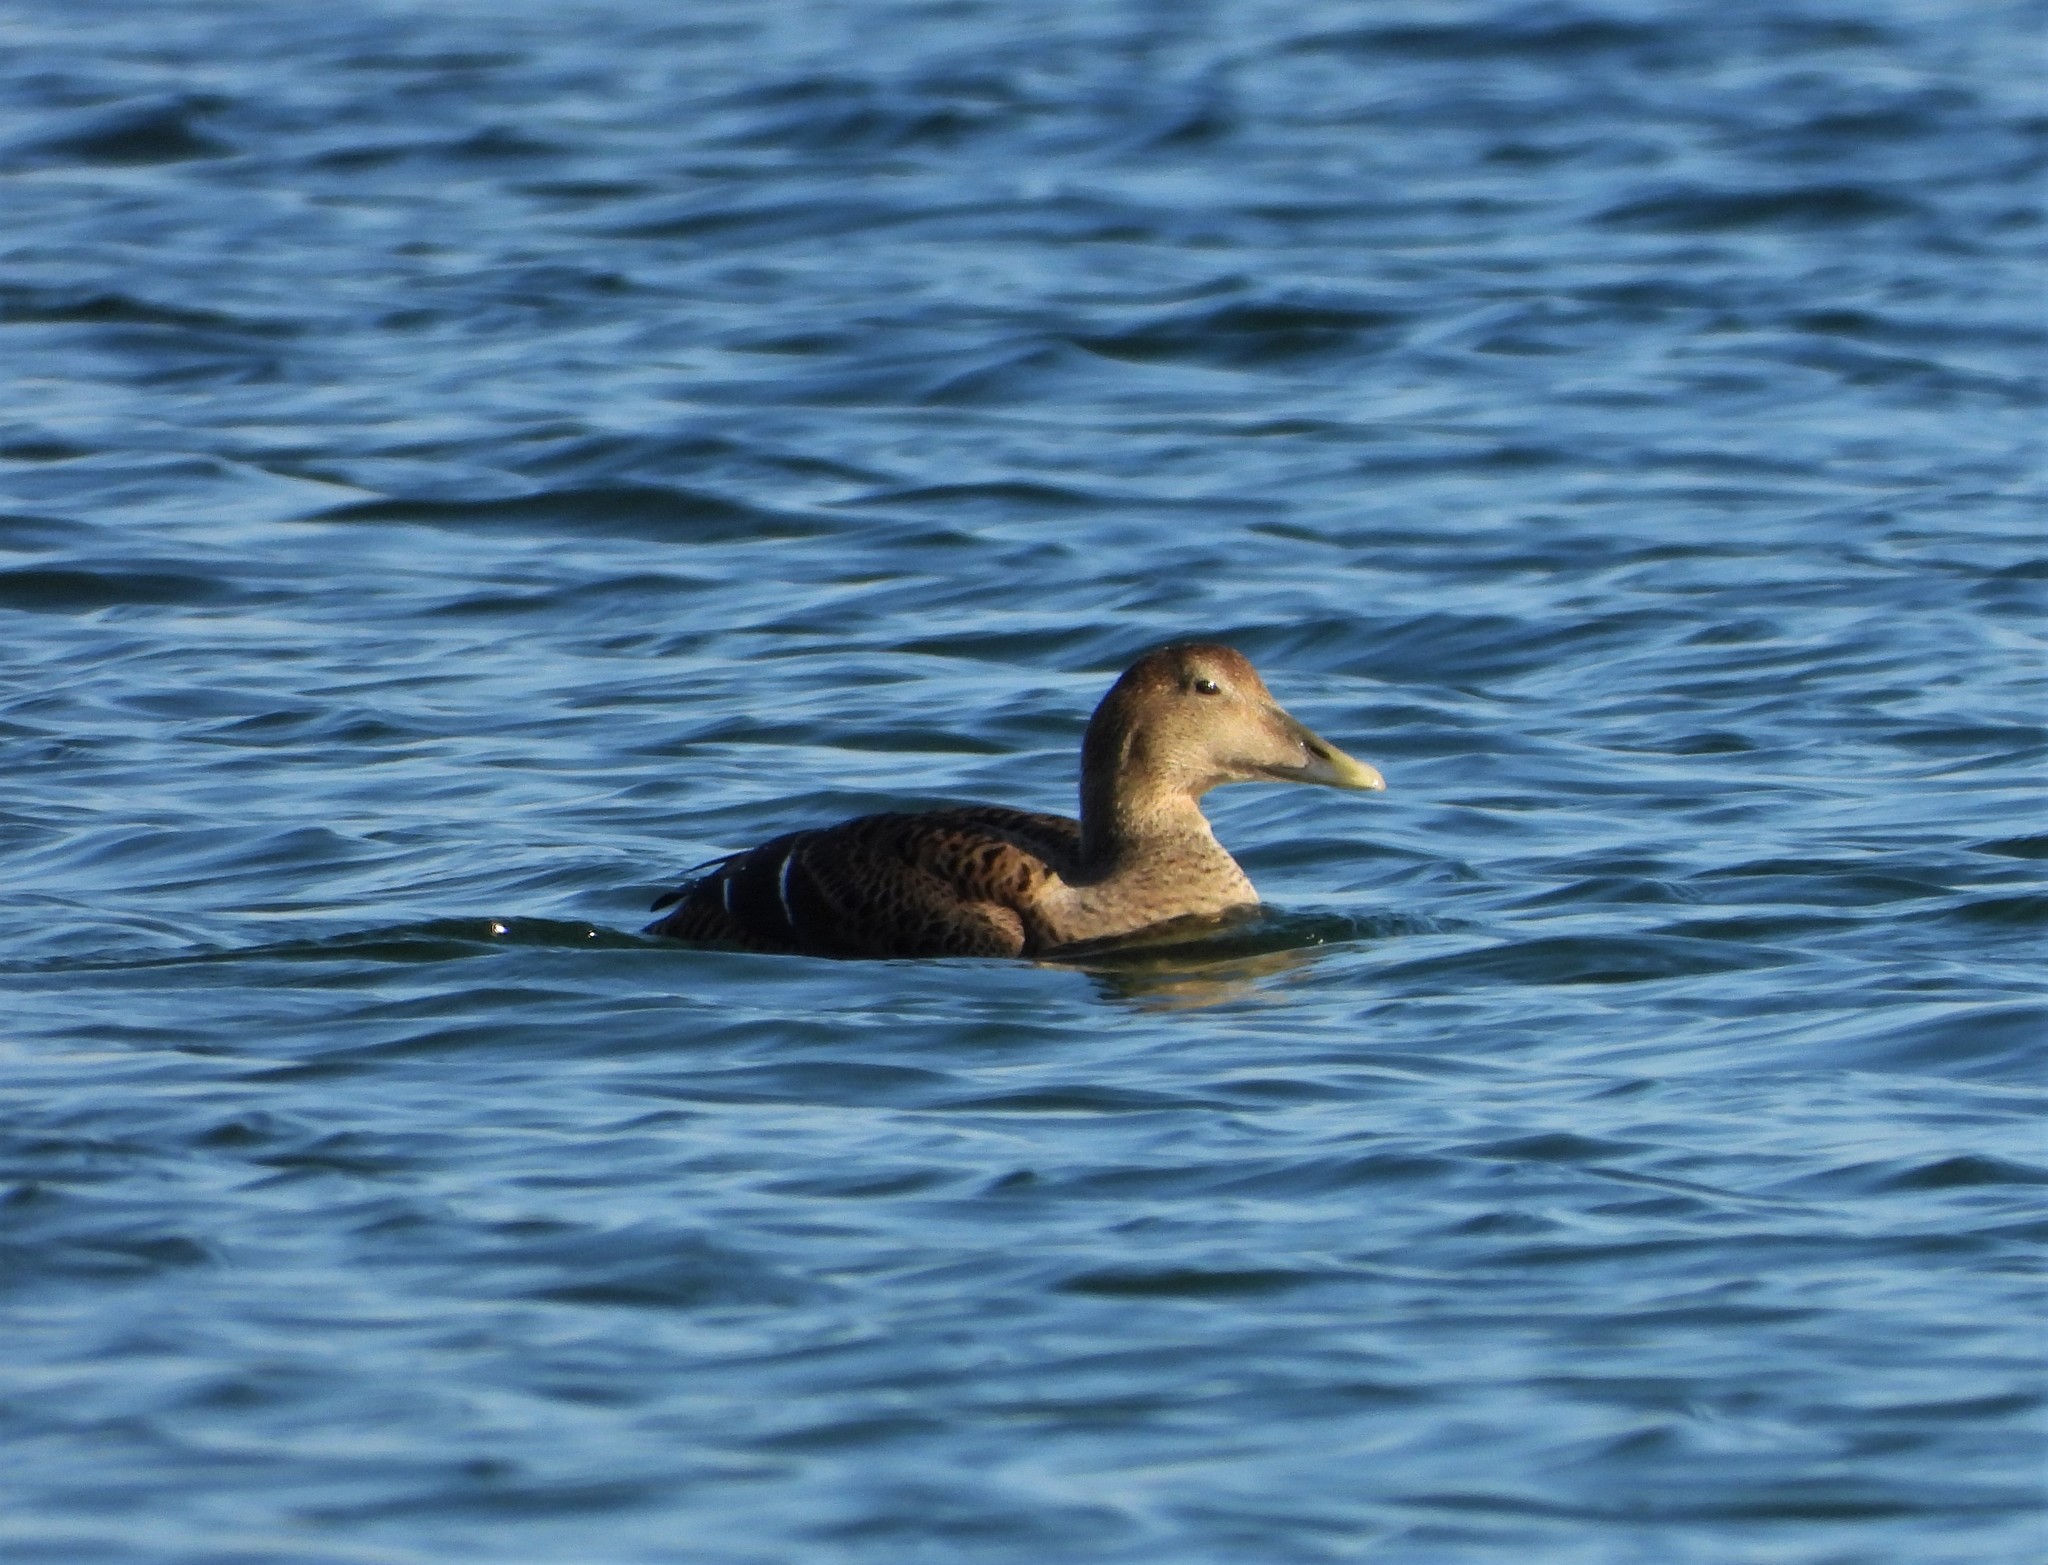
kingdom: Animalia
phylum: Chordata
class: Aves
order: Anseriformes
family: Anatidae
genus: Somateria
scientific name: Somateria mollissima
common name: Common eider
